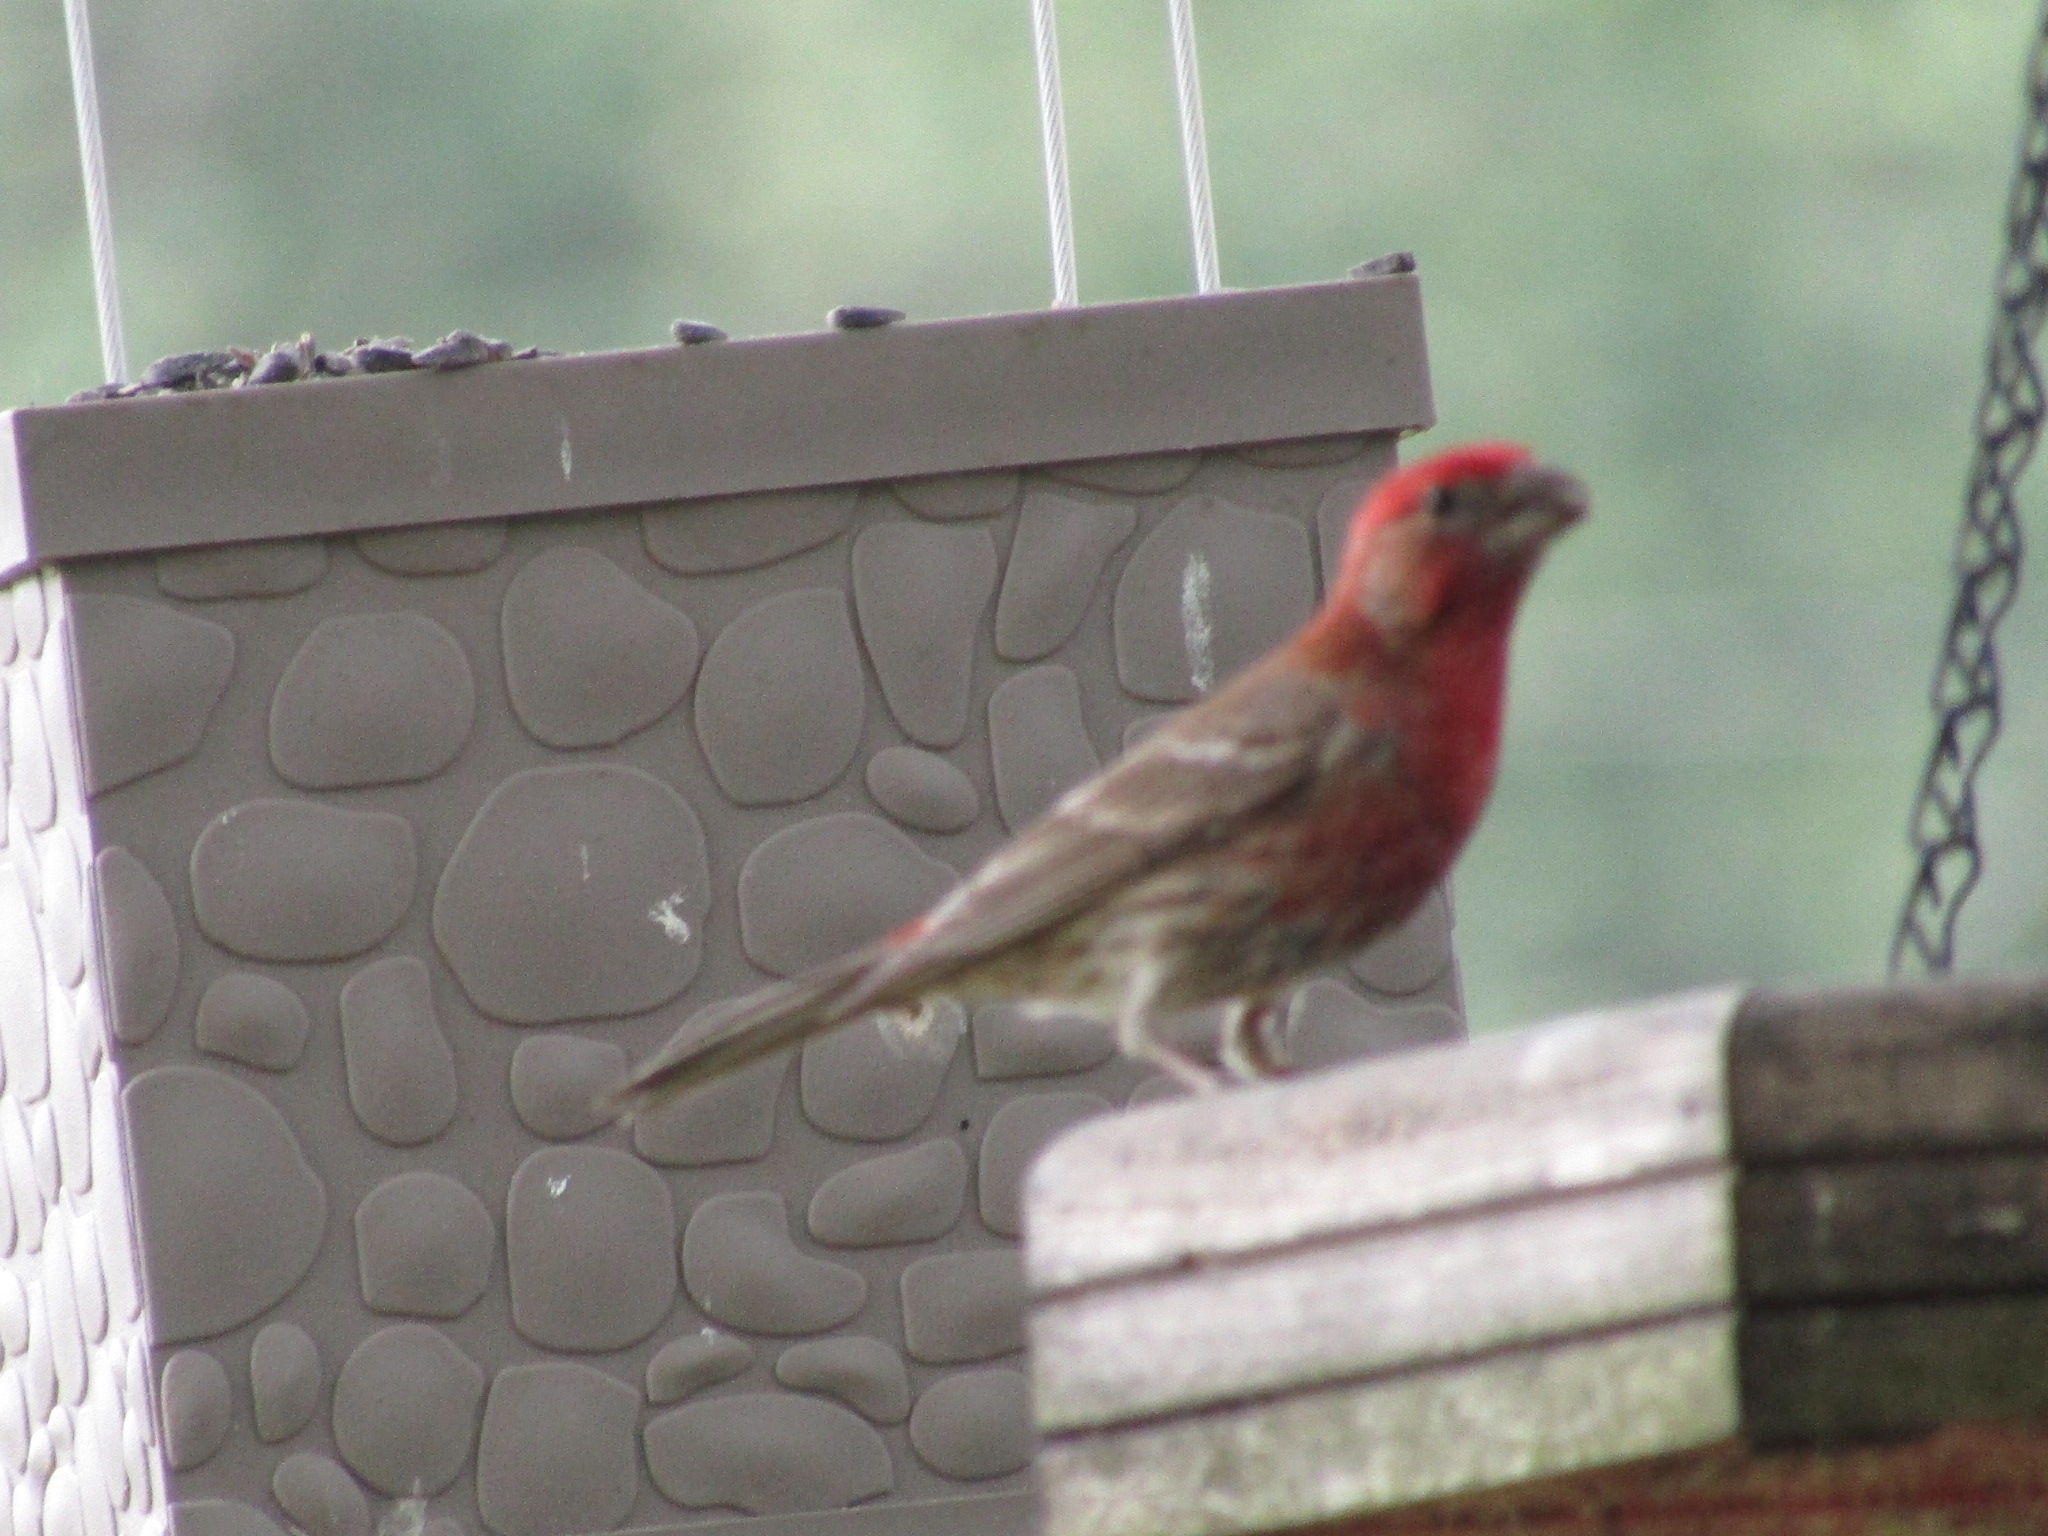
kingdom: Animalia
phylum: Chordata
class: Aves
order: Passeriformes
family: Fringillidae
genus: Haemorhous
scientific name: Haemorhous mexicanus
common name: House finch
